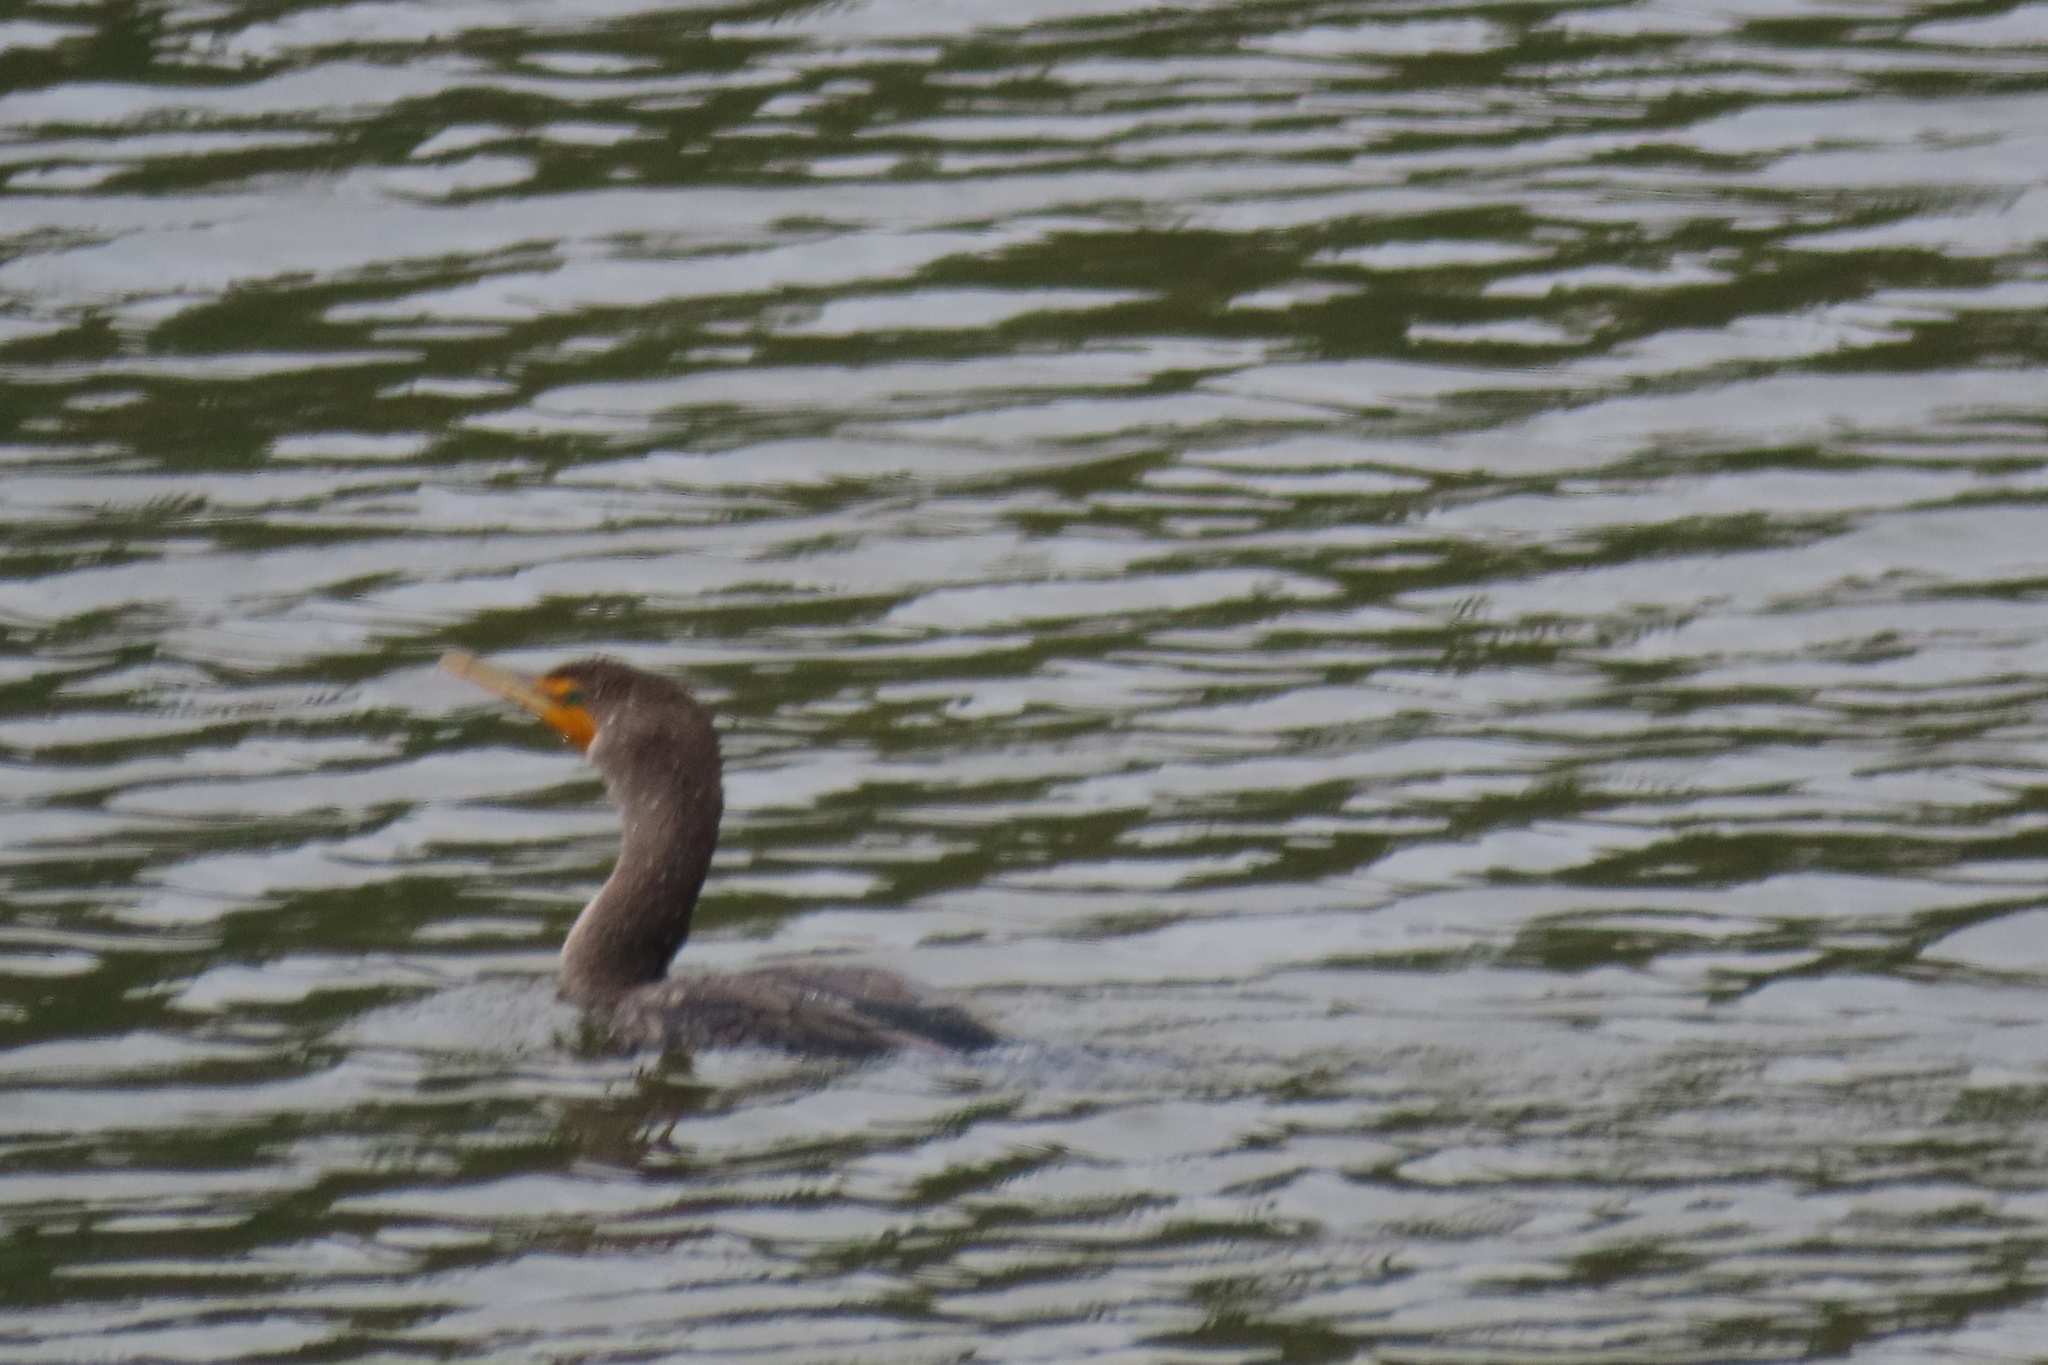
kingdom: Animalia
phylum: Chordata
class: Aves
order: Suliformes
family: Phalacrocoracidae
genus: Phalacrocorax
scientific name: Phalacrocorax auritus
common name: Double-crested cormorant
